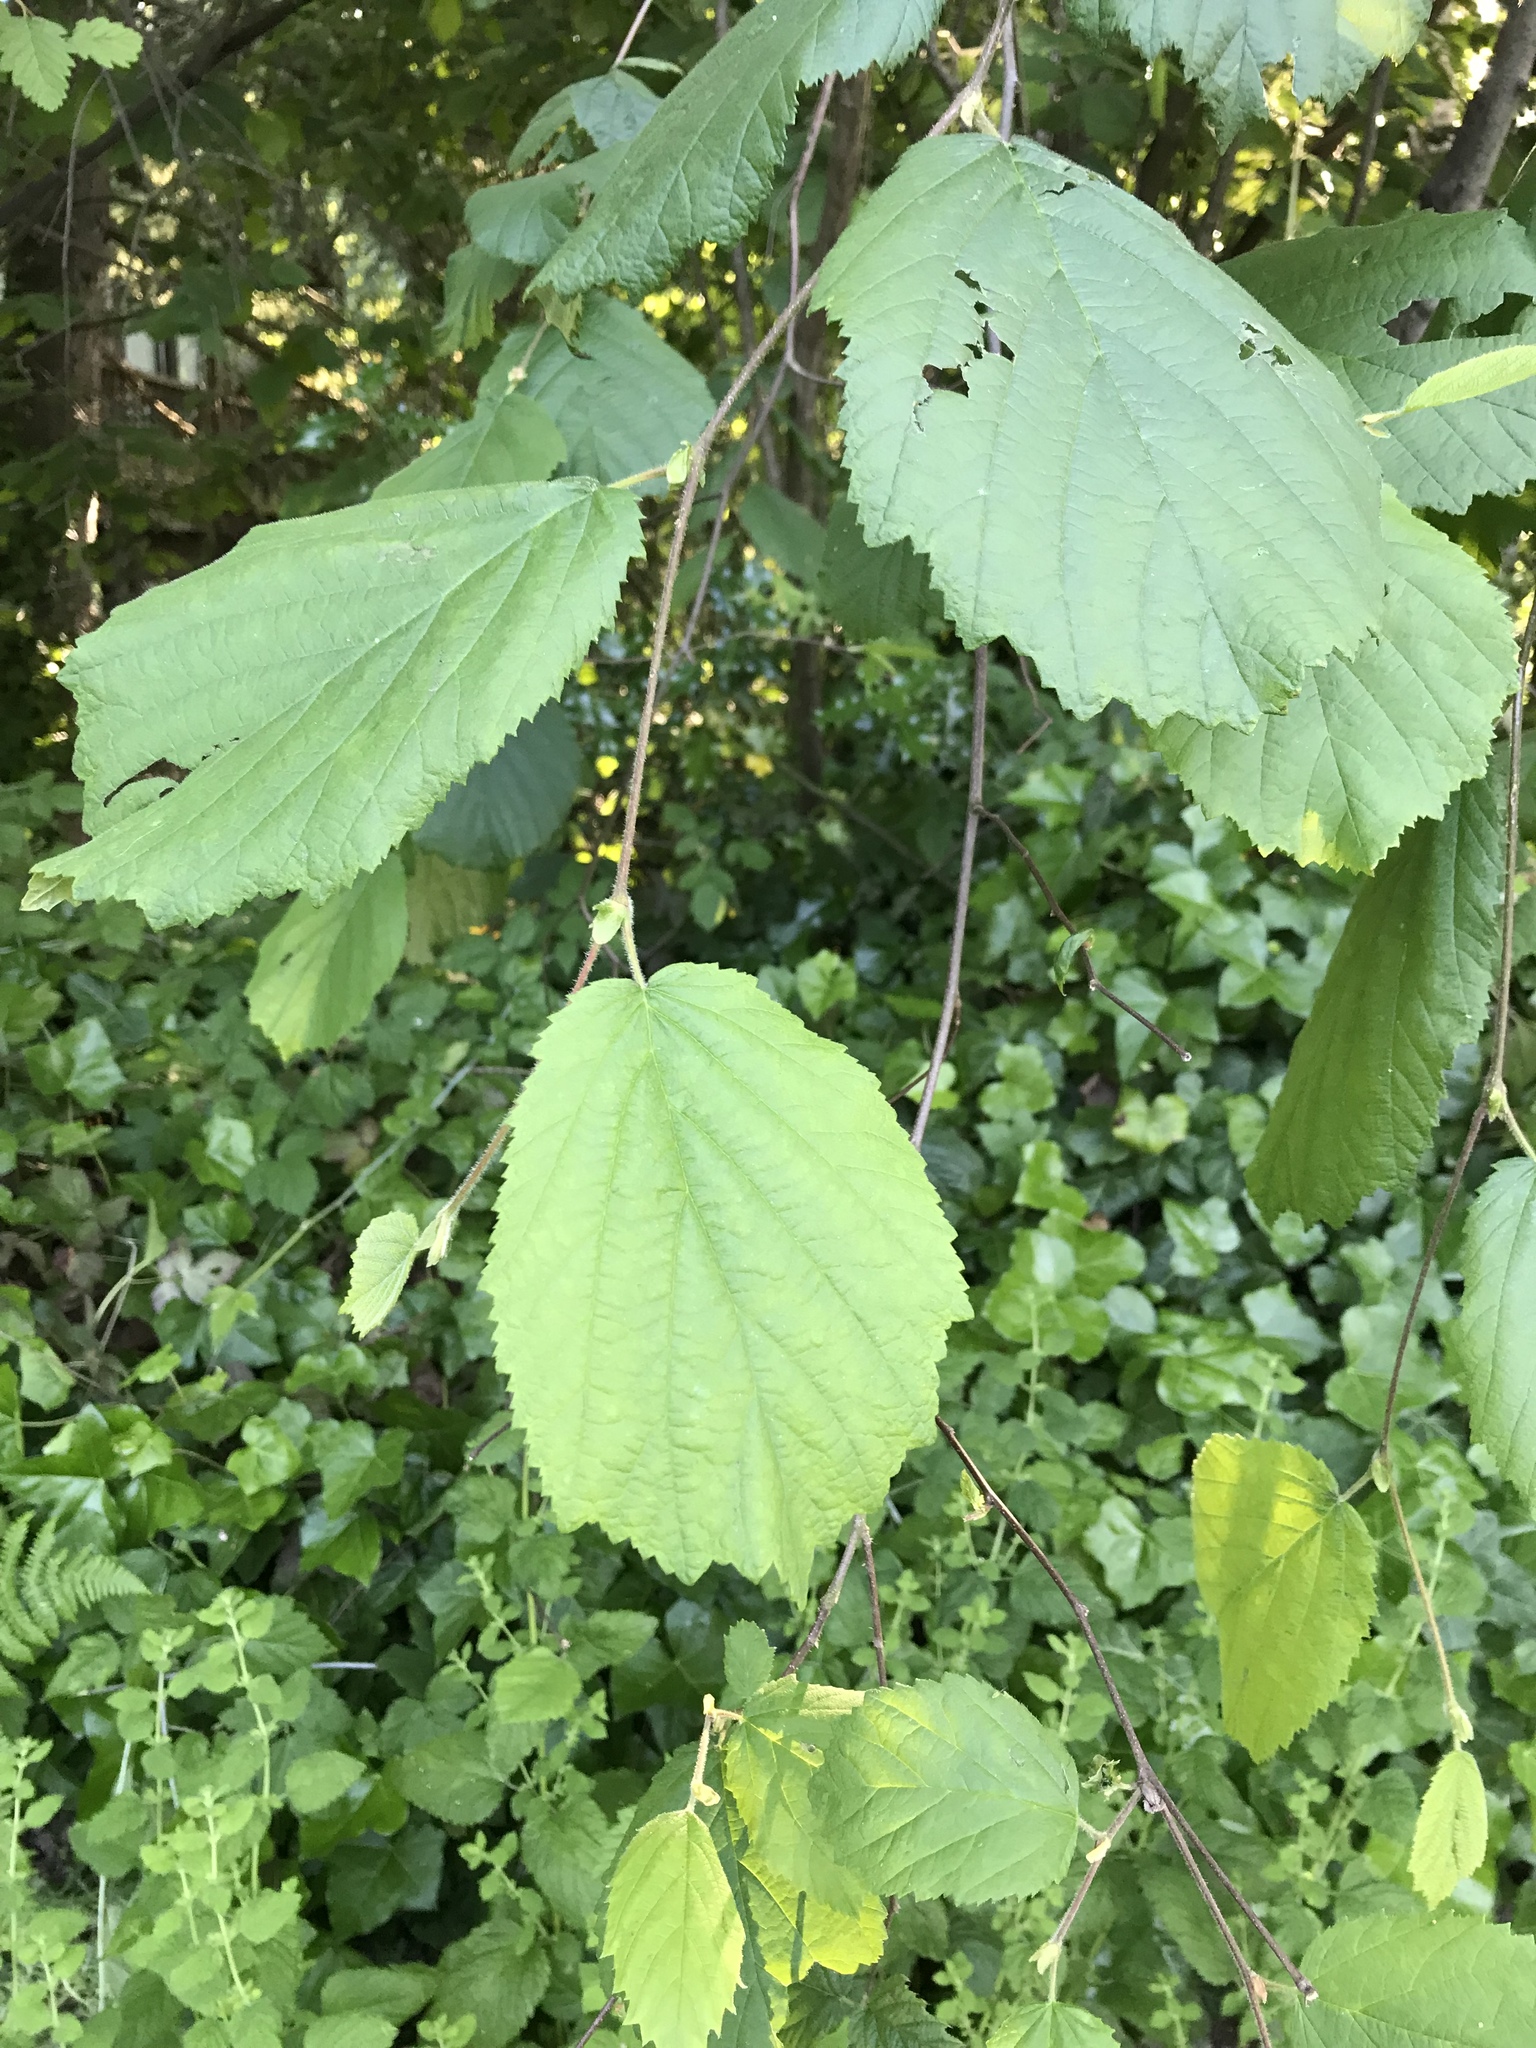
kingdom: Plantae
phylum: Tracheophyta
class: Magnoliopsida
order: Fagales
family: Betulaceae
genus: Corylus
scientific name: Corylus cornuta
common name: Beaked hazel
